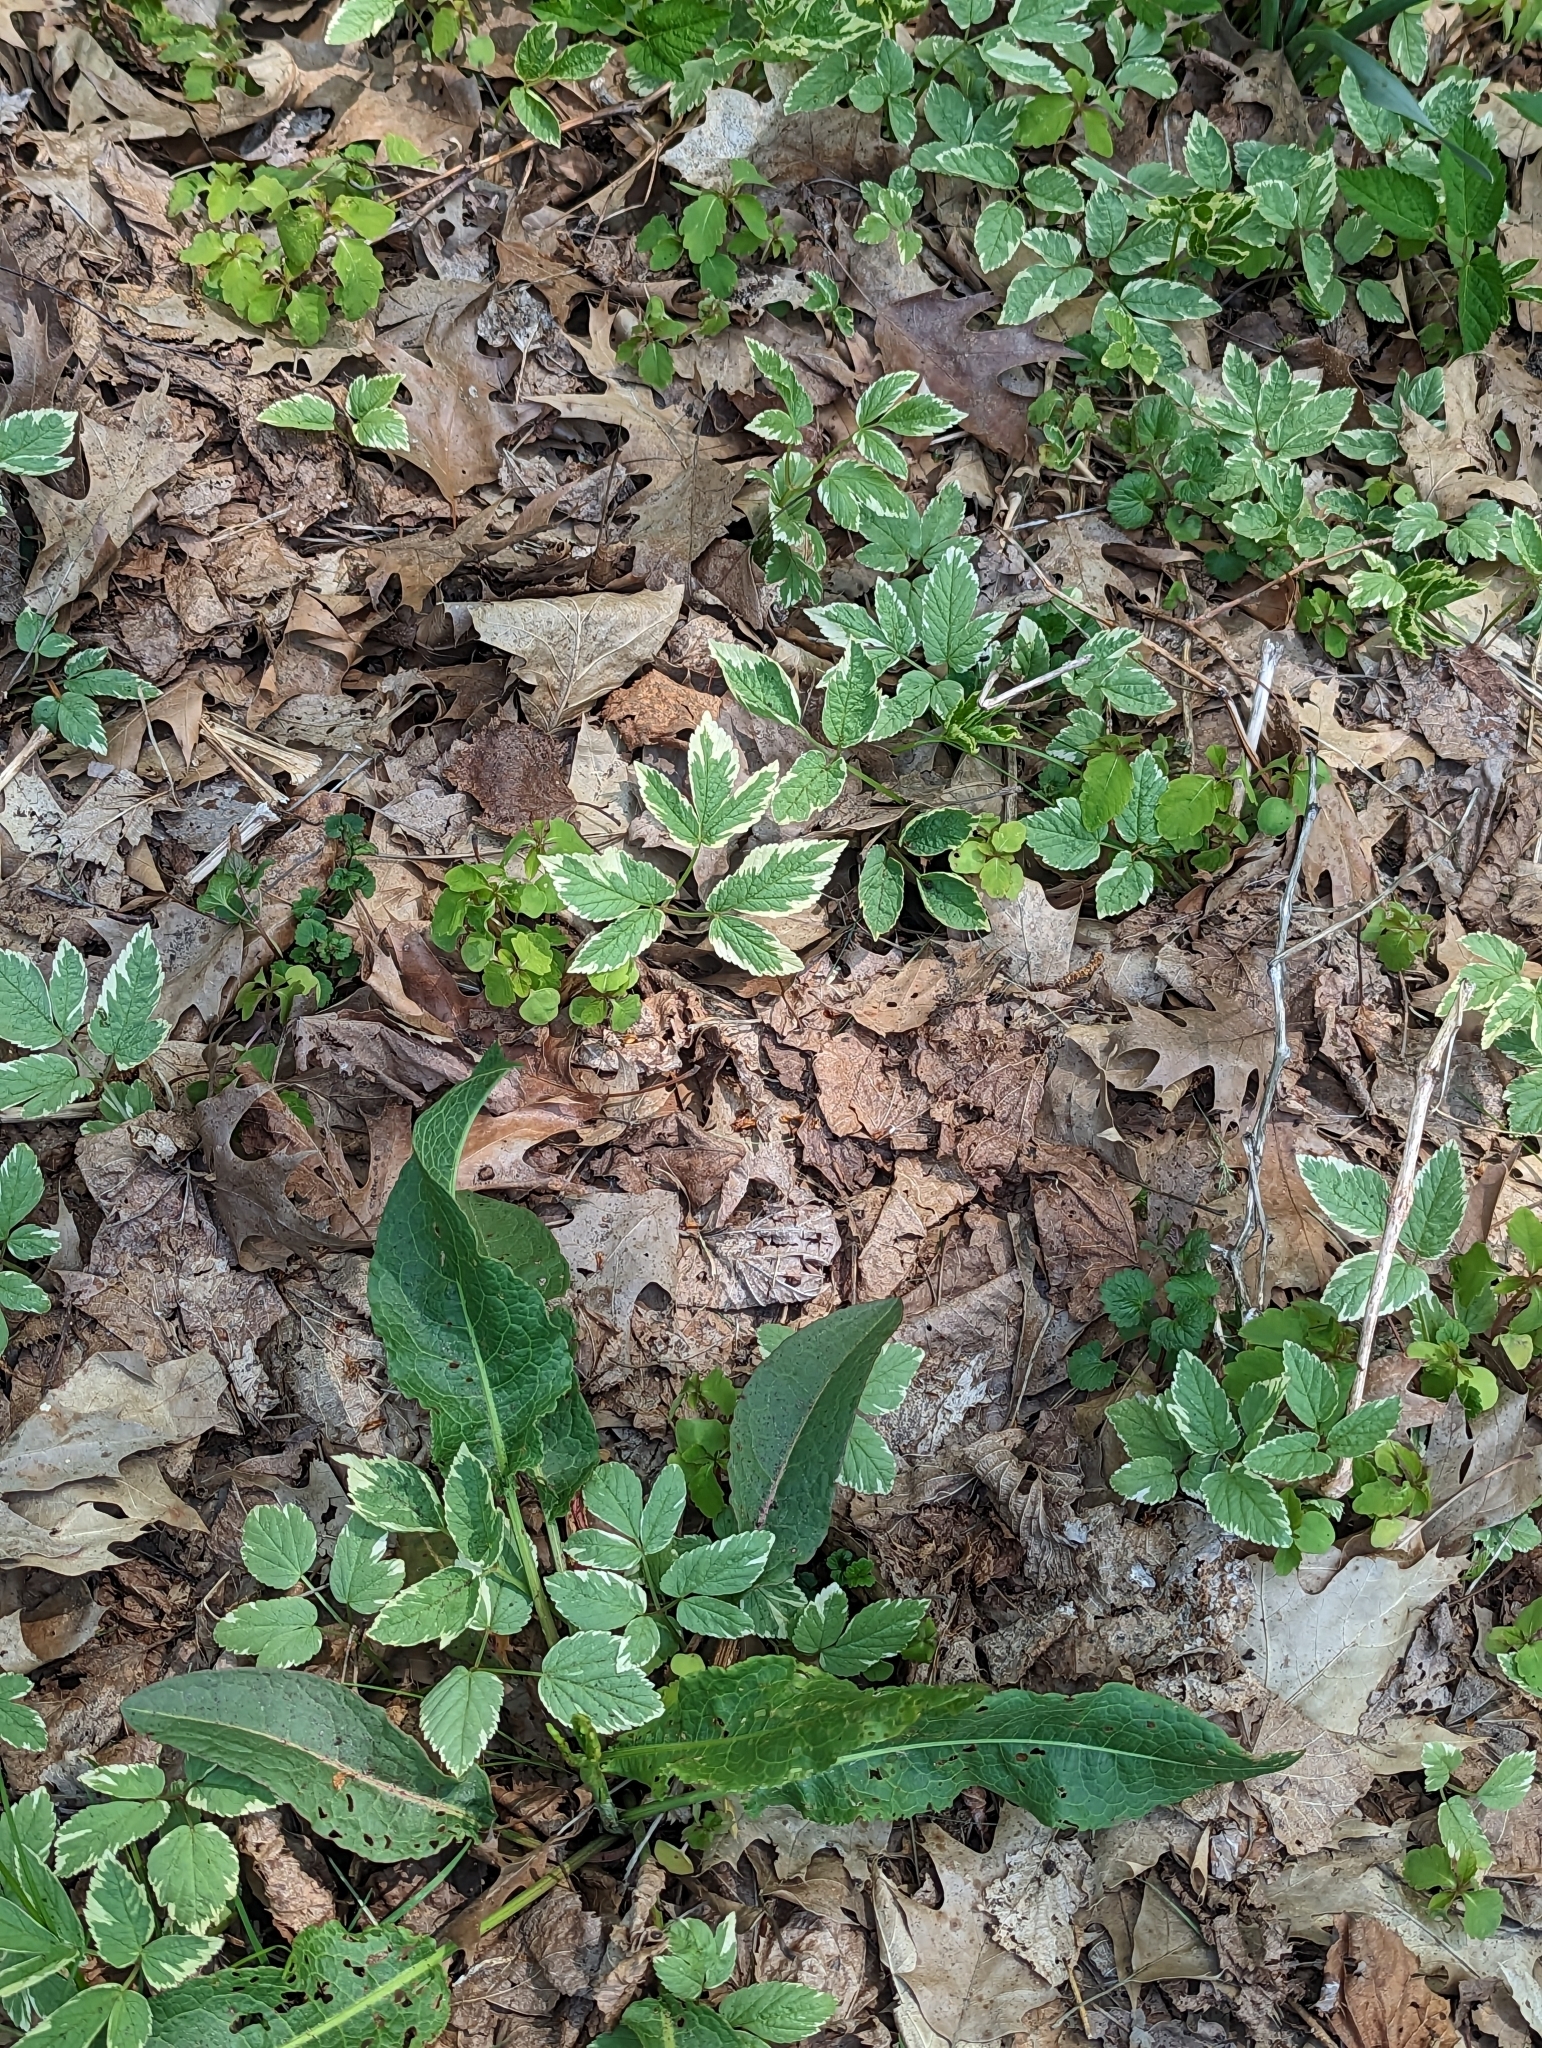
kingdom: Plantae
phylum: Tracheophyta
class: Magnoliopsida
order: Apiales
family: Apiaceae
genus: Aegopodium
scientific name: Aegopodium podagraria
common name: Ground-elder
